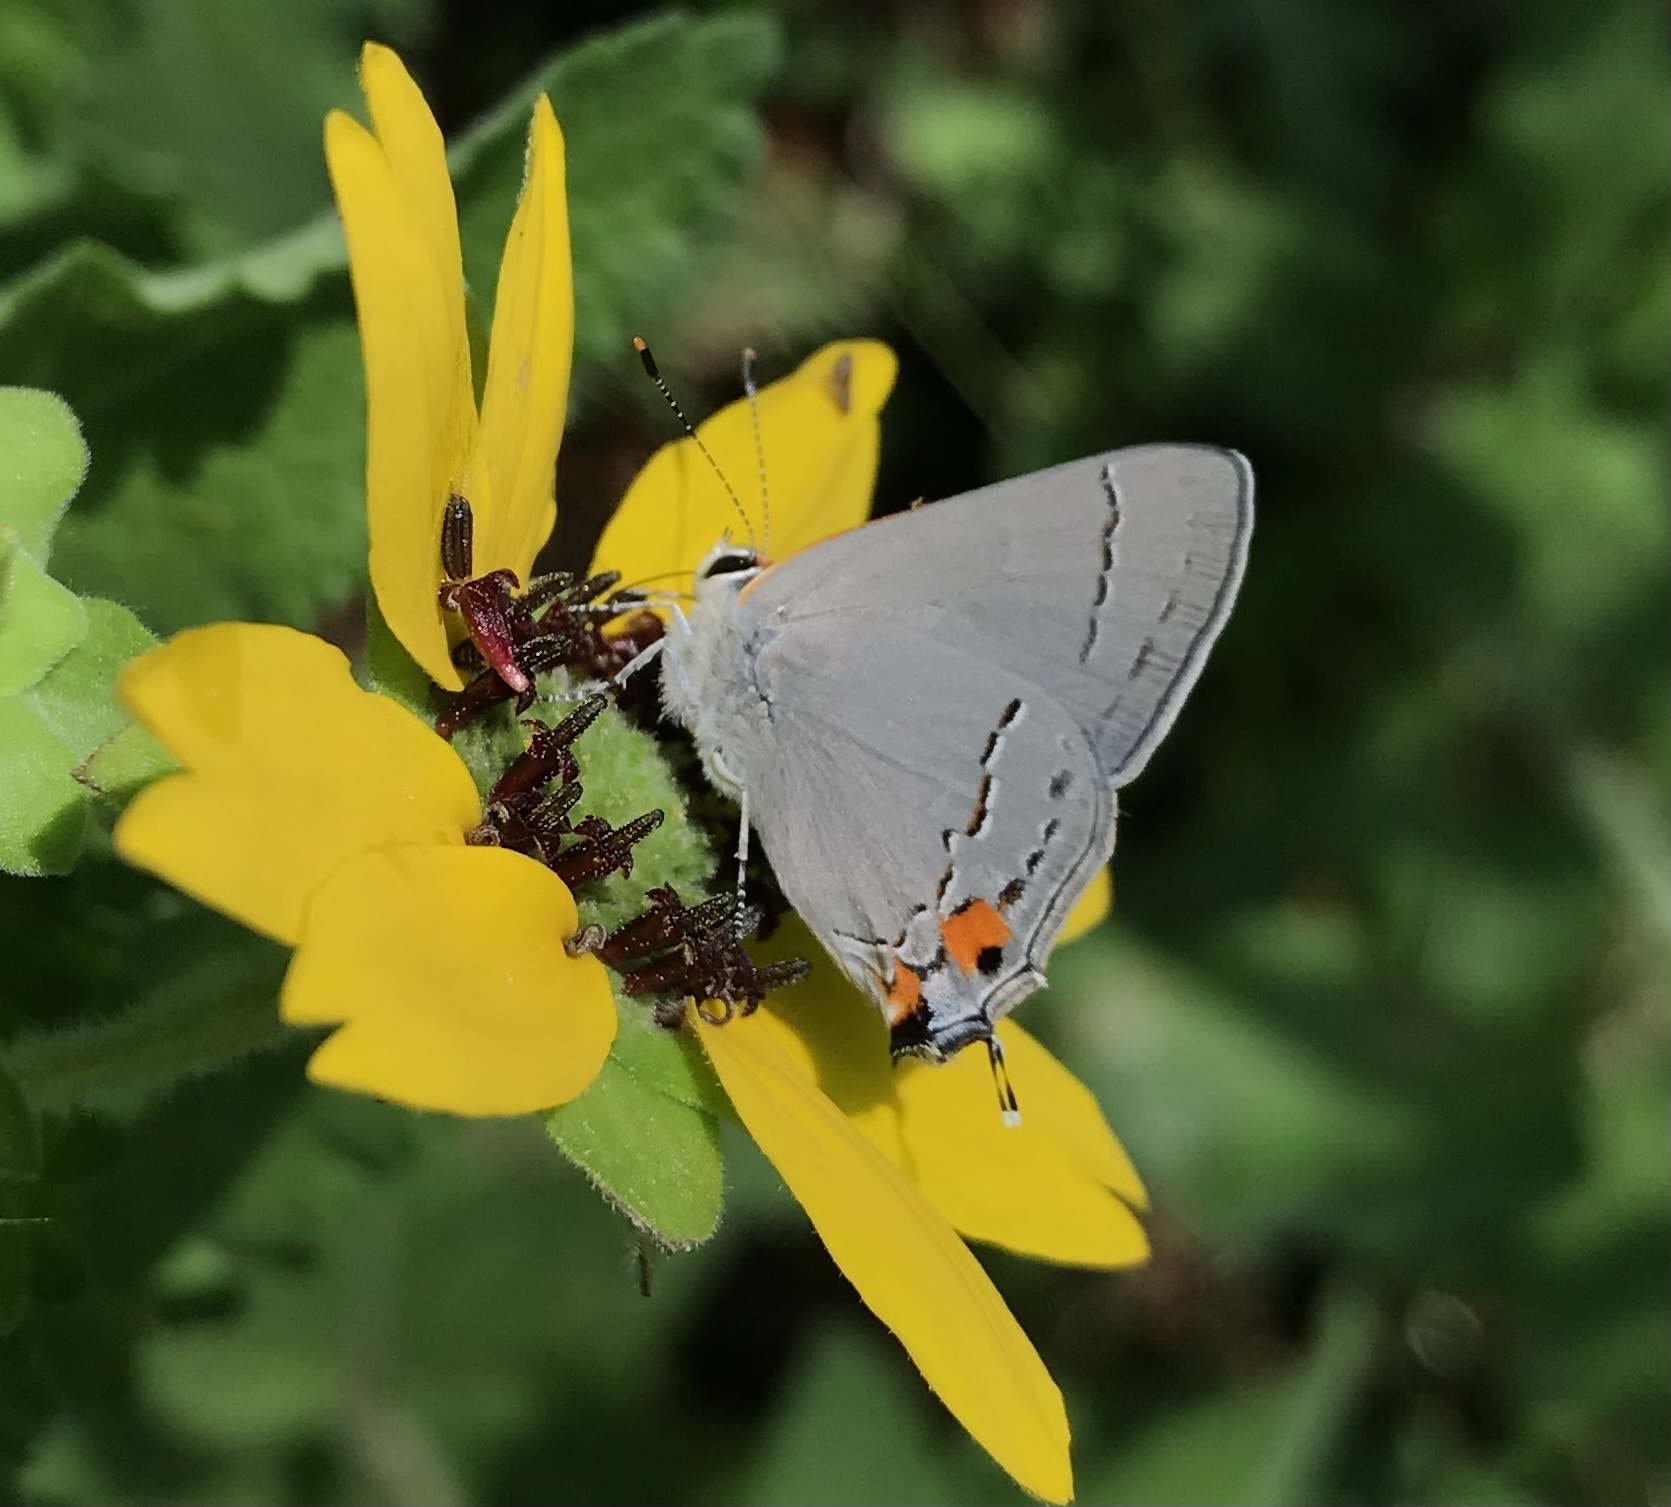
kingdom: Animalia
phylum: Arthropoda
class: Insecta
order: Lepidoptera
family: Lycaenidae
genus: Strymon
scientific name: Strymon melinus
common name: Gray hairstreak
